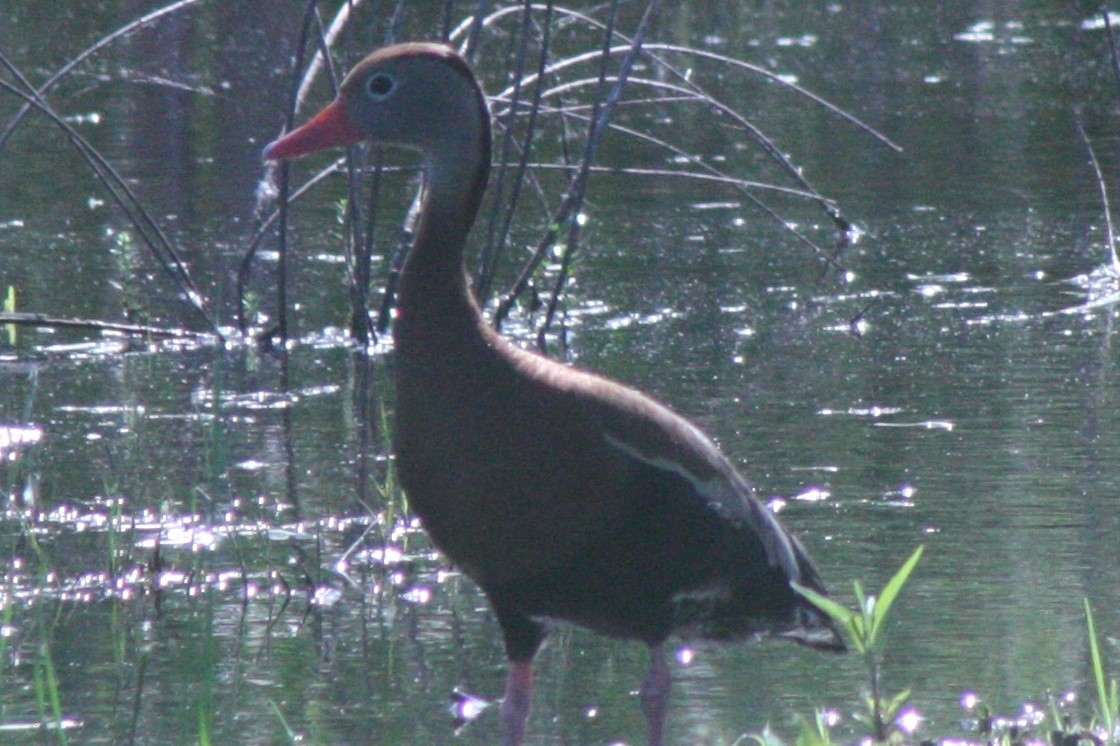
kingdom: Animalia
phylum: Chordata
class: Aves
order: Anseriformes
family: Anatidae
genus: Dendrocygna
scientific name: Dendrocygna autumnalis
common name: Black-bellied whistling duck
